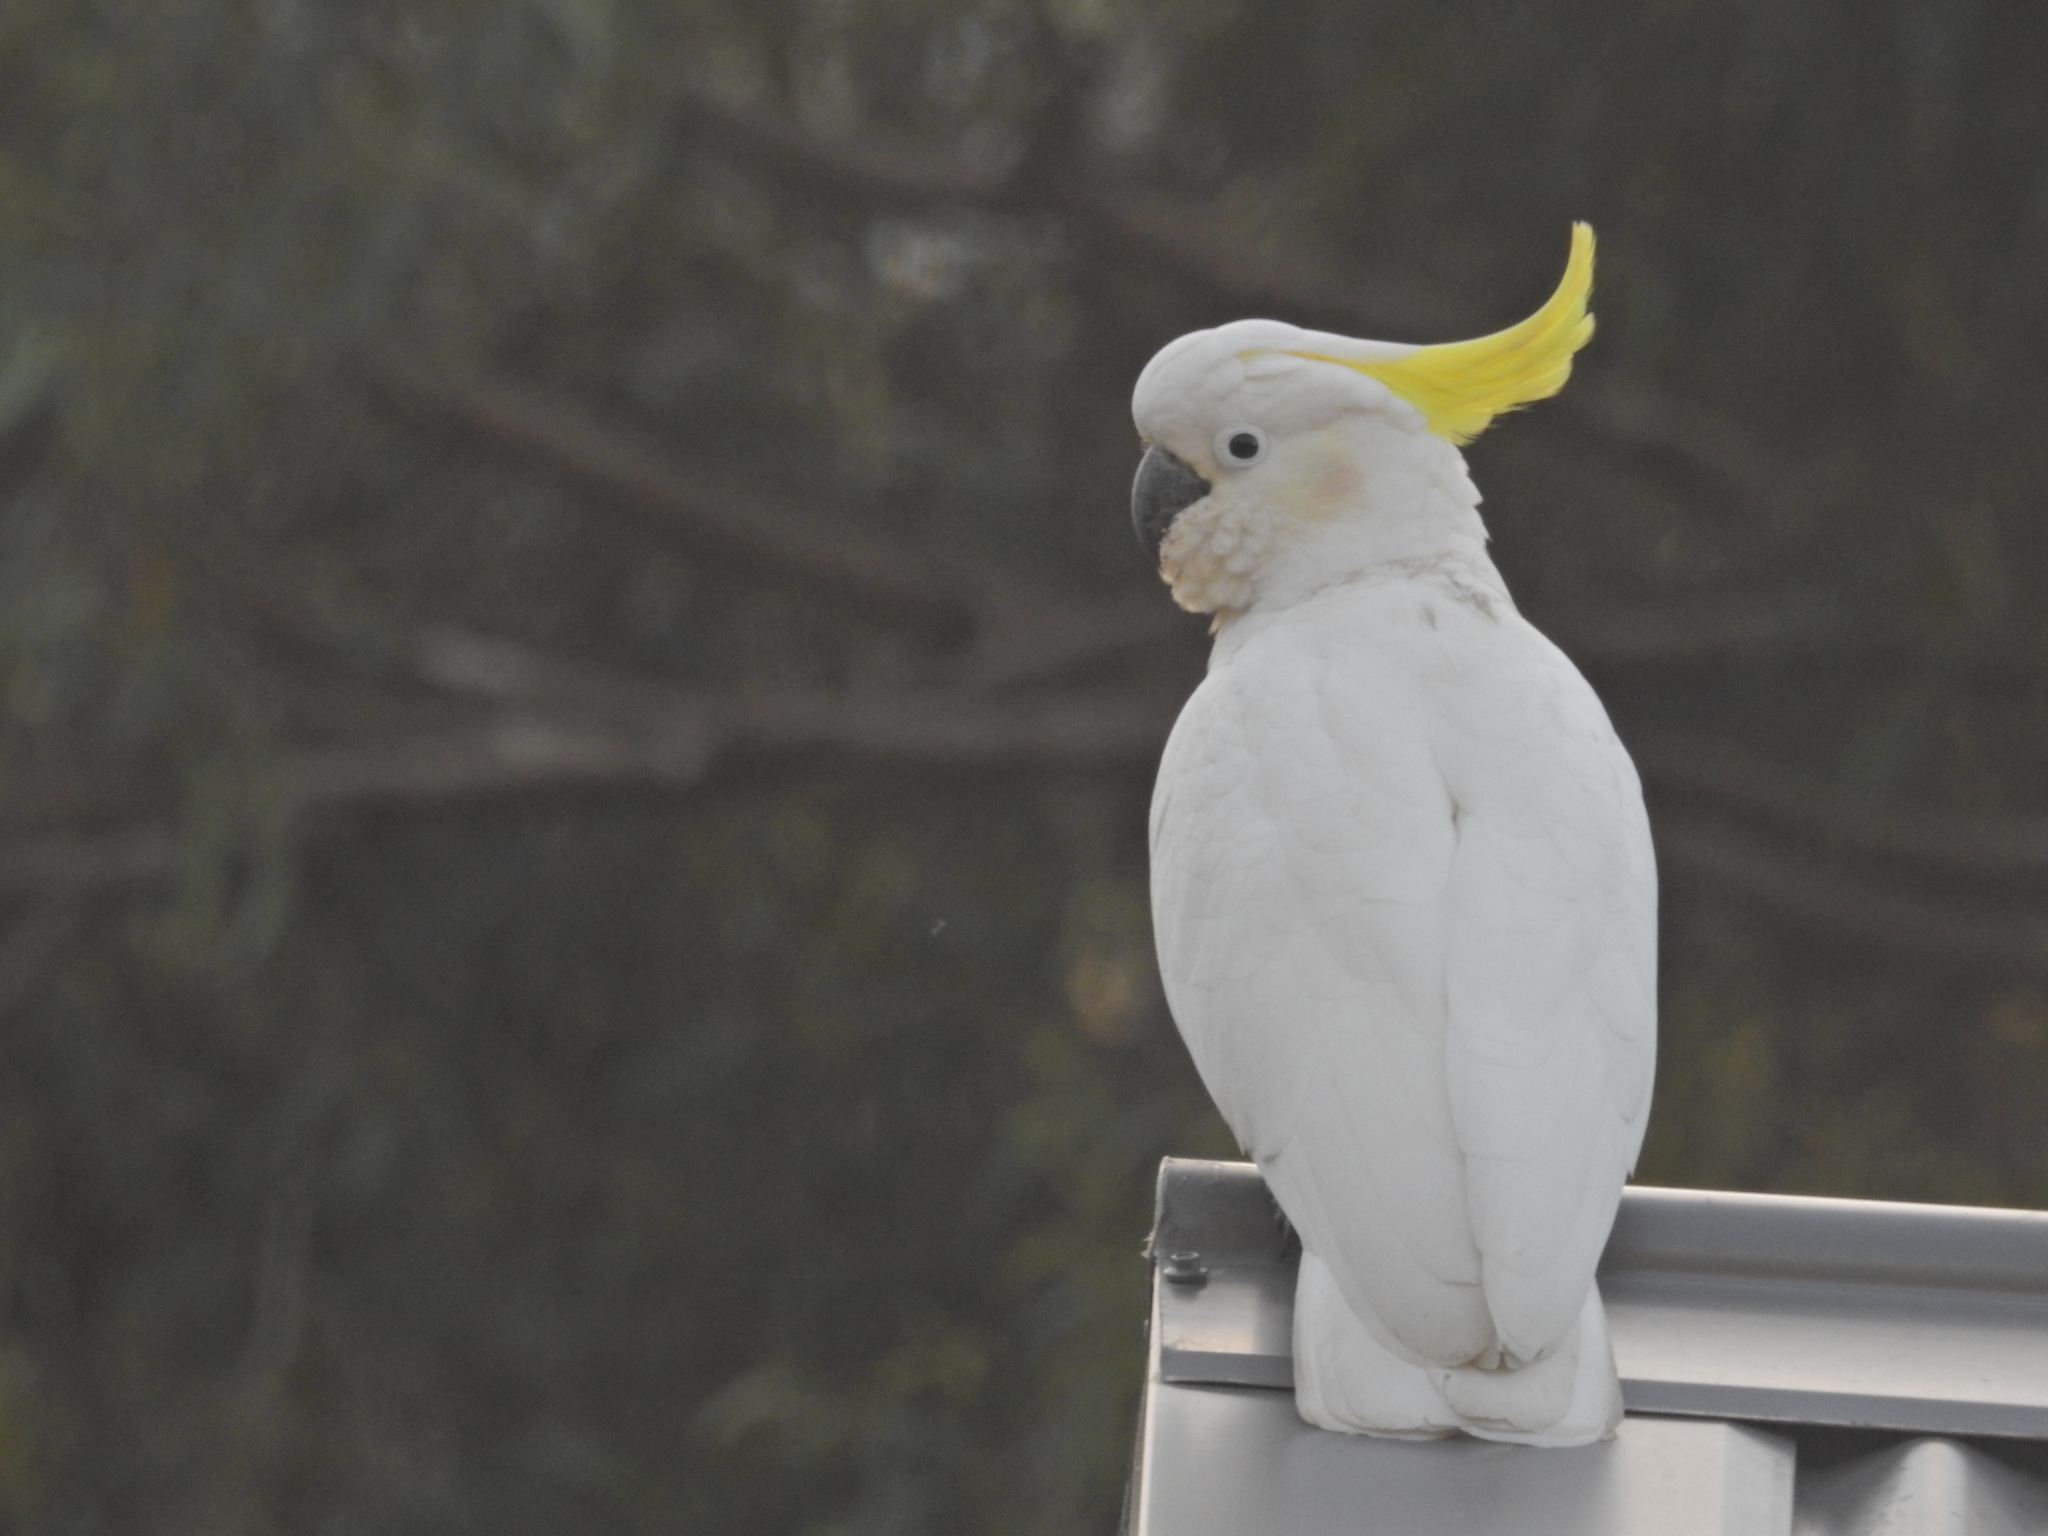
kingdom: Animalia
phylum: Chordata
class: Aves
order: Psittaciformes
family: Psittacidae
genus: Cacatua
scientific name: Cacatua galerita
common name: Sulphur-crested cockatoo
